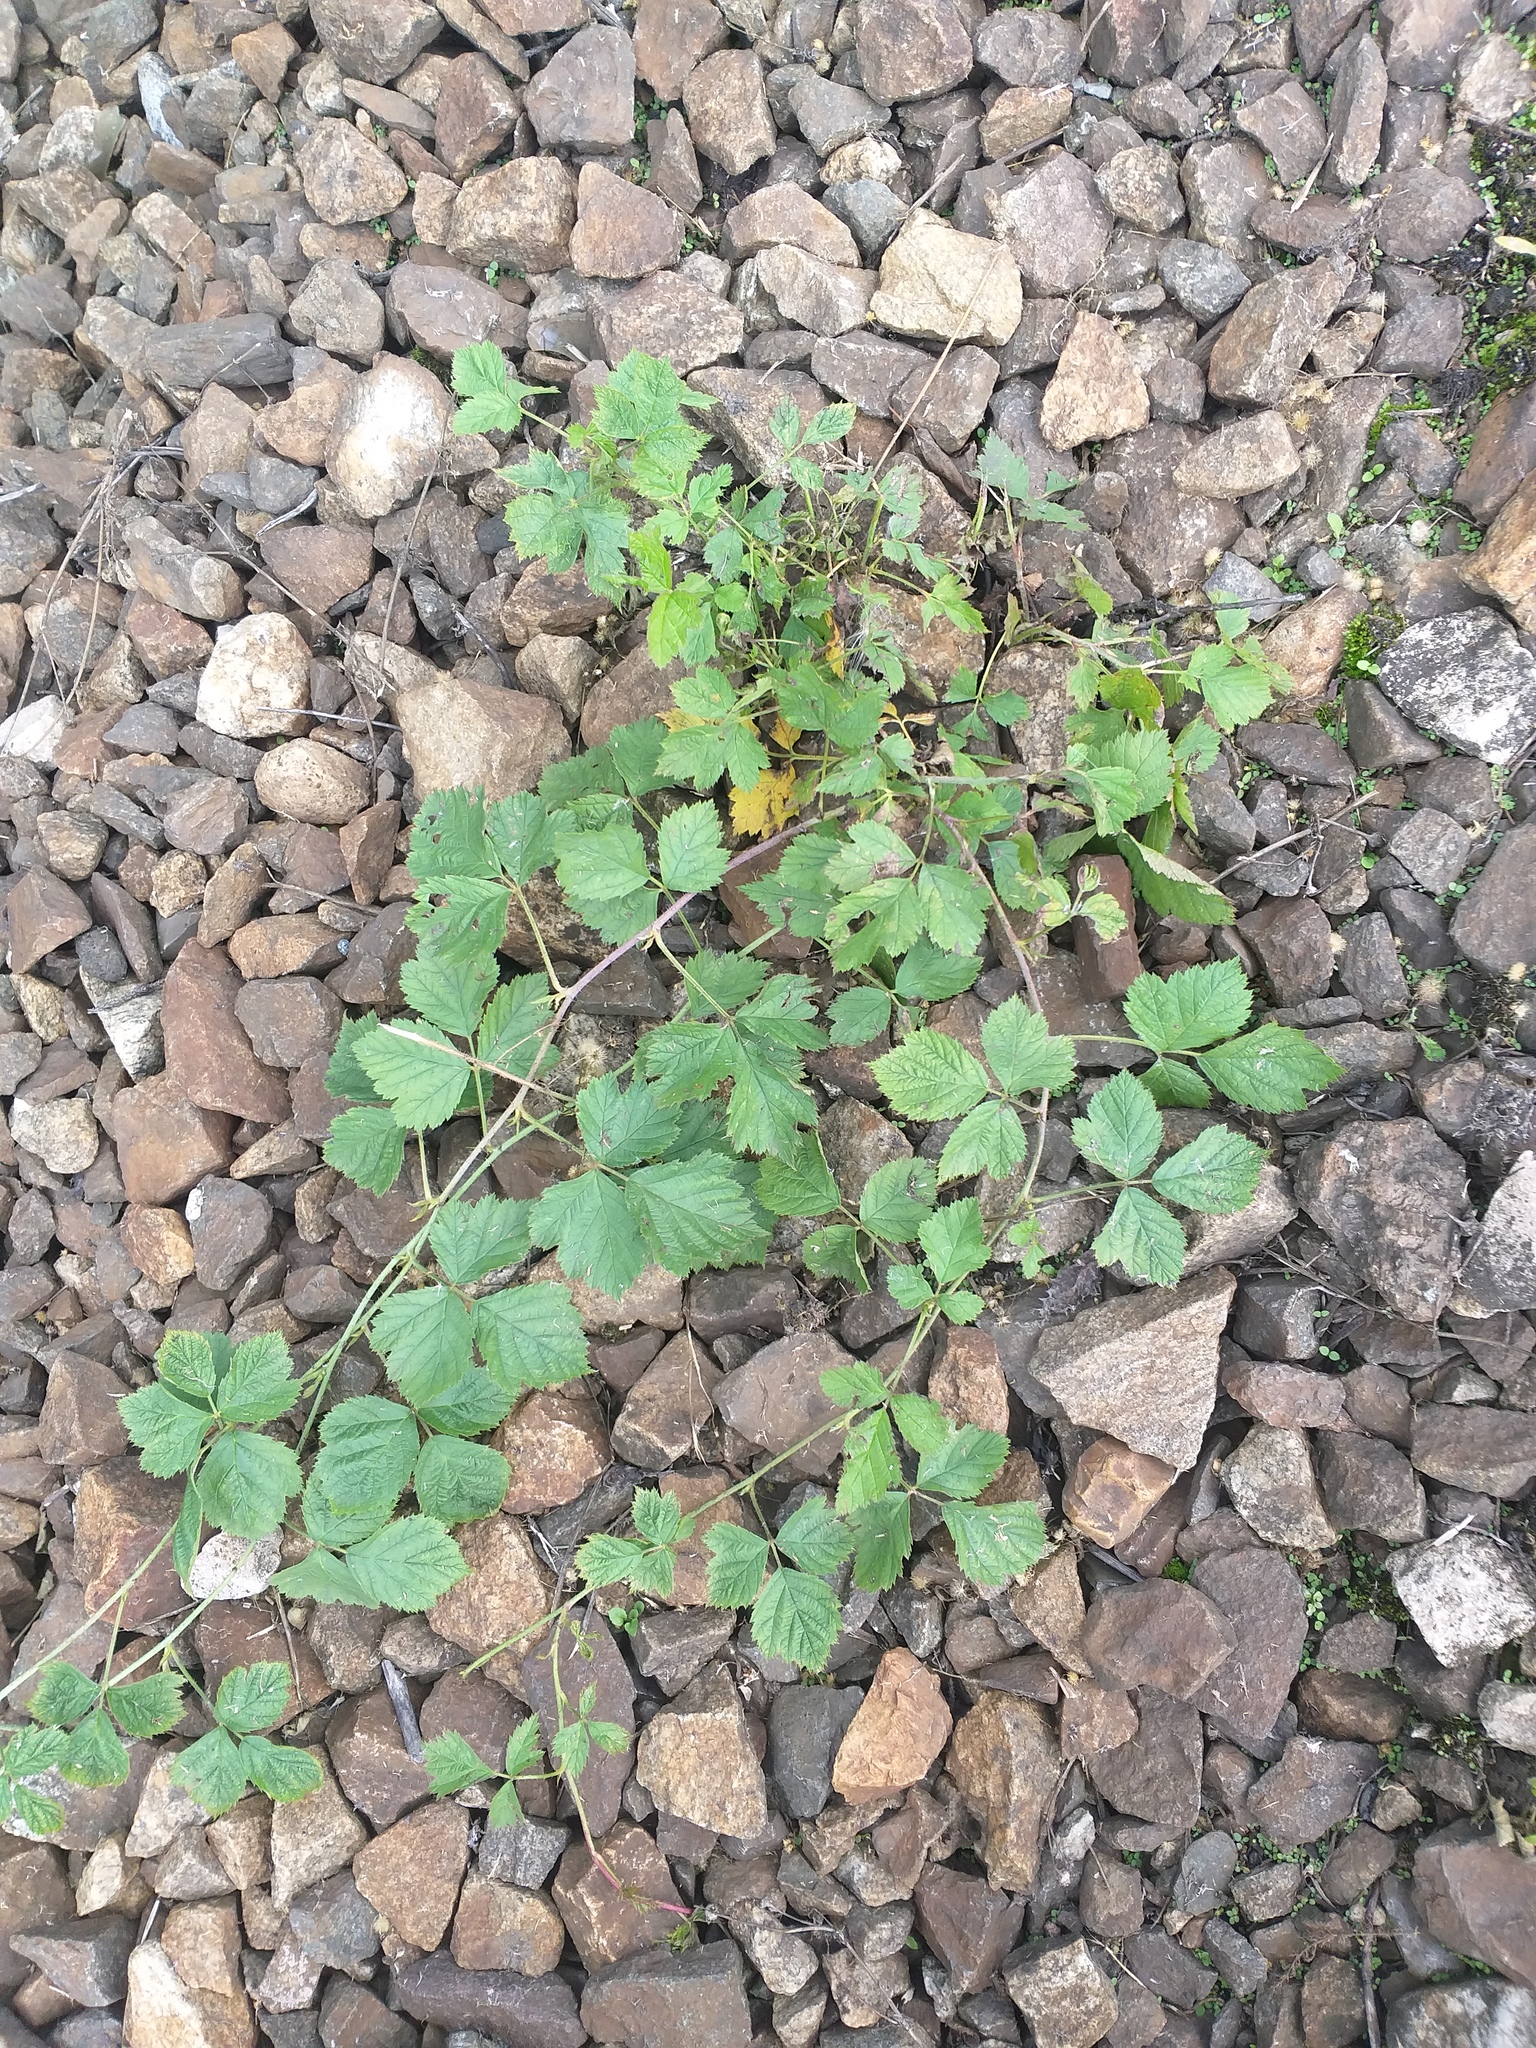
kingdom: Plantae
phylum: Tracheophyta
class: Magnoliopsida
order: Rosales
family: Rosaceae
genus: Rubus
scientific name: Rubus caesius
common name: Dewberry
